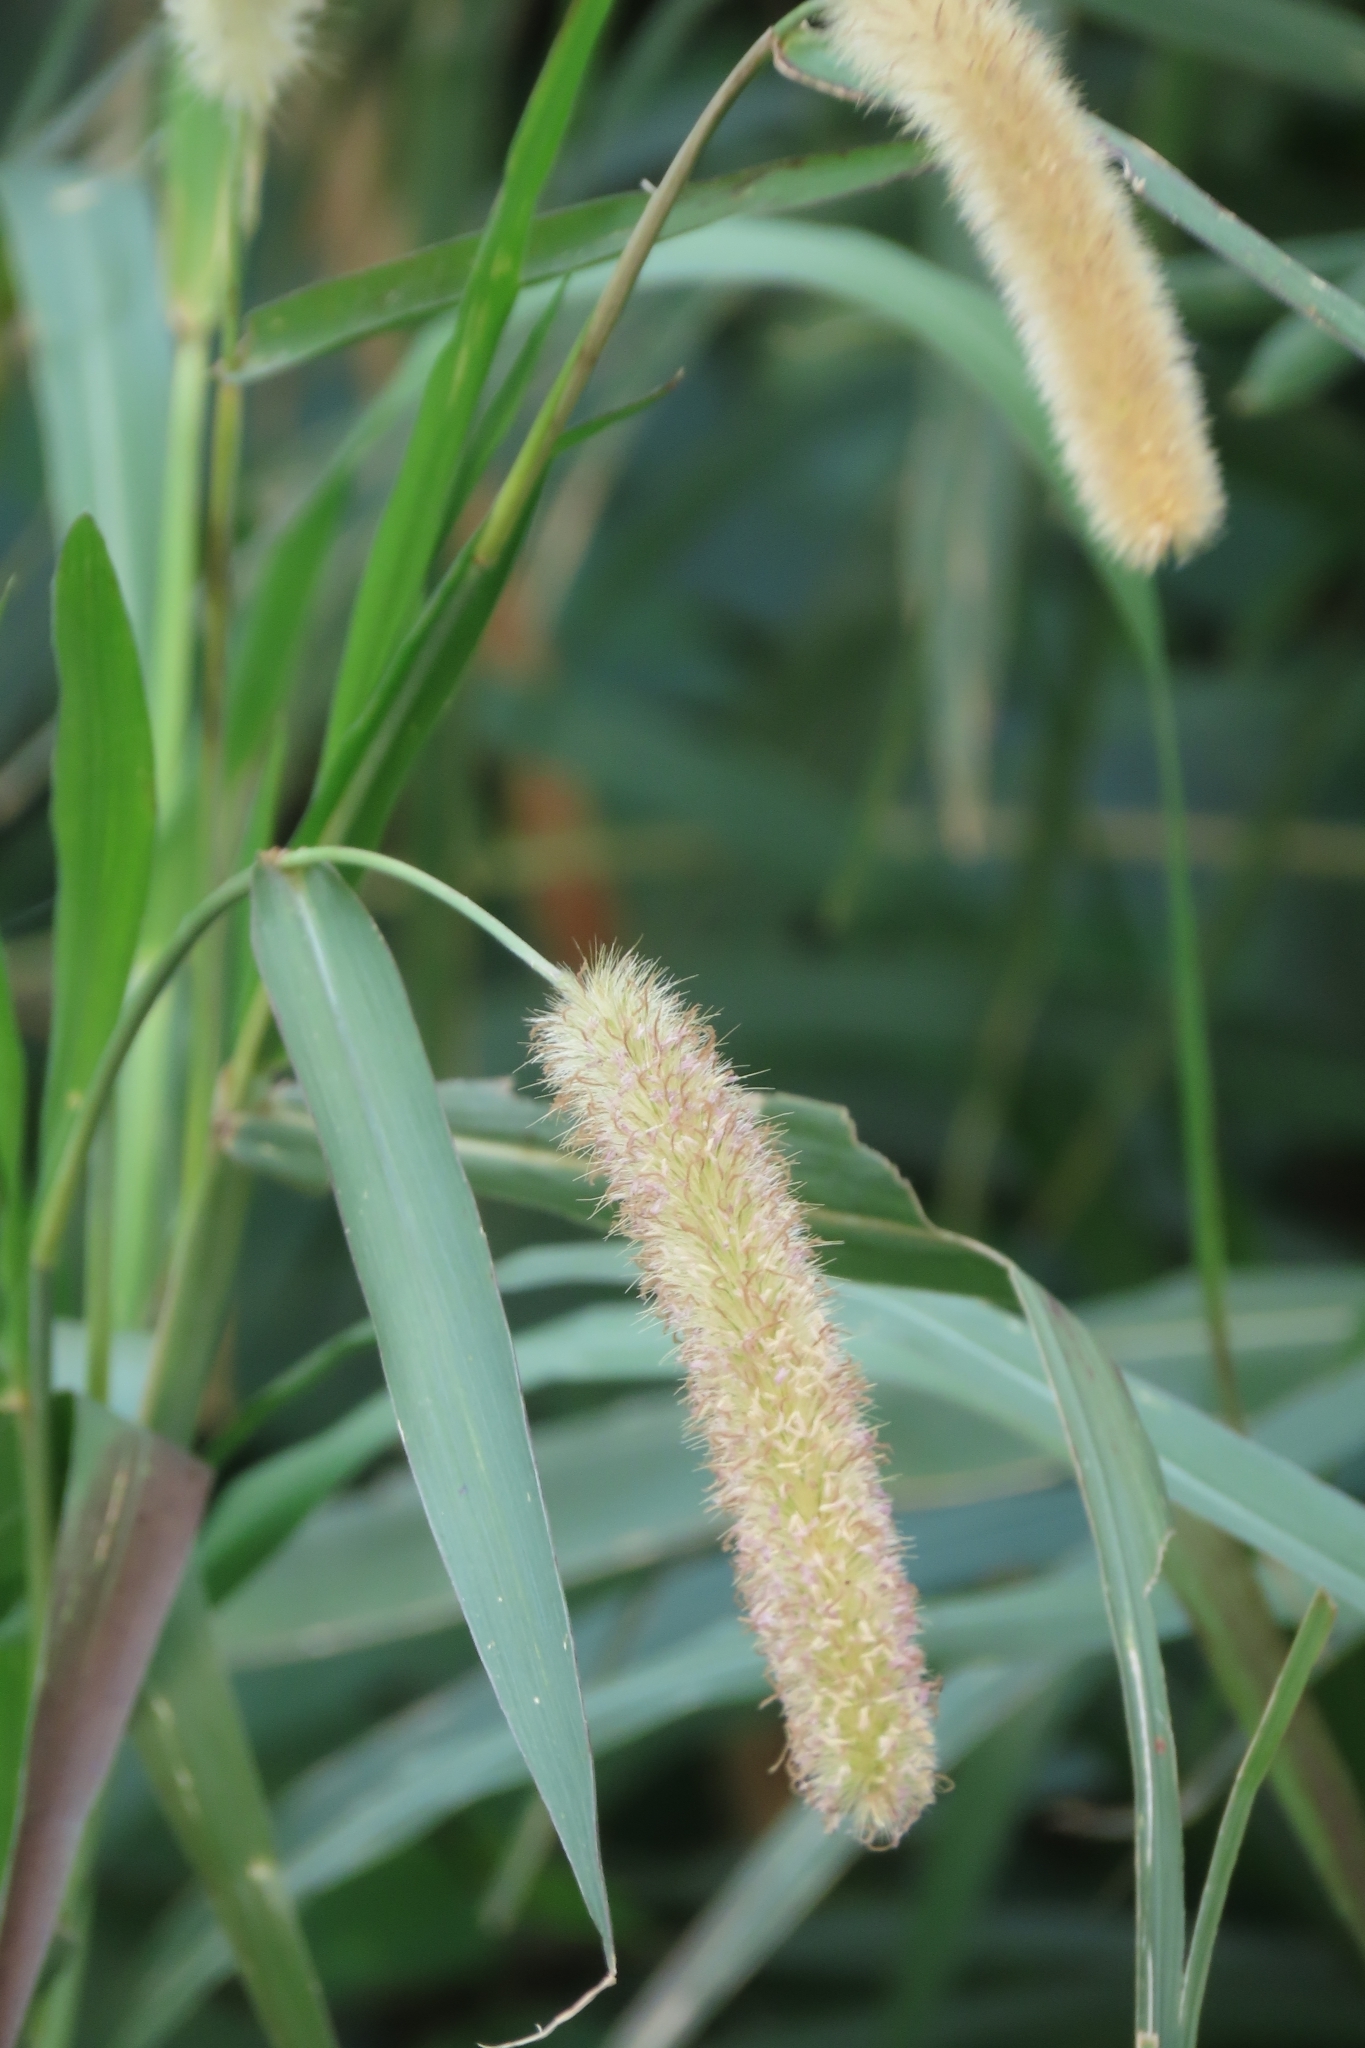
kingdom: Plantae
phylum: Tracheophyta
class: Liliopsida
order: Poales
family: Poaceae
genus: Cenchrus
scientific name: Cenchrus purpureus
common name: Elephant grass
